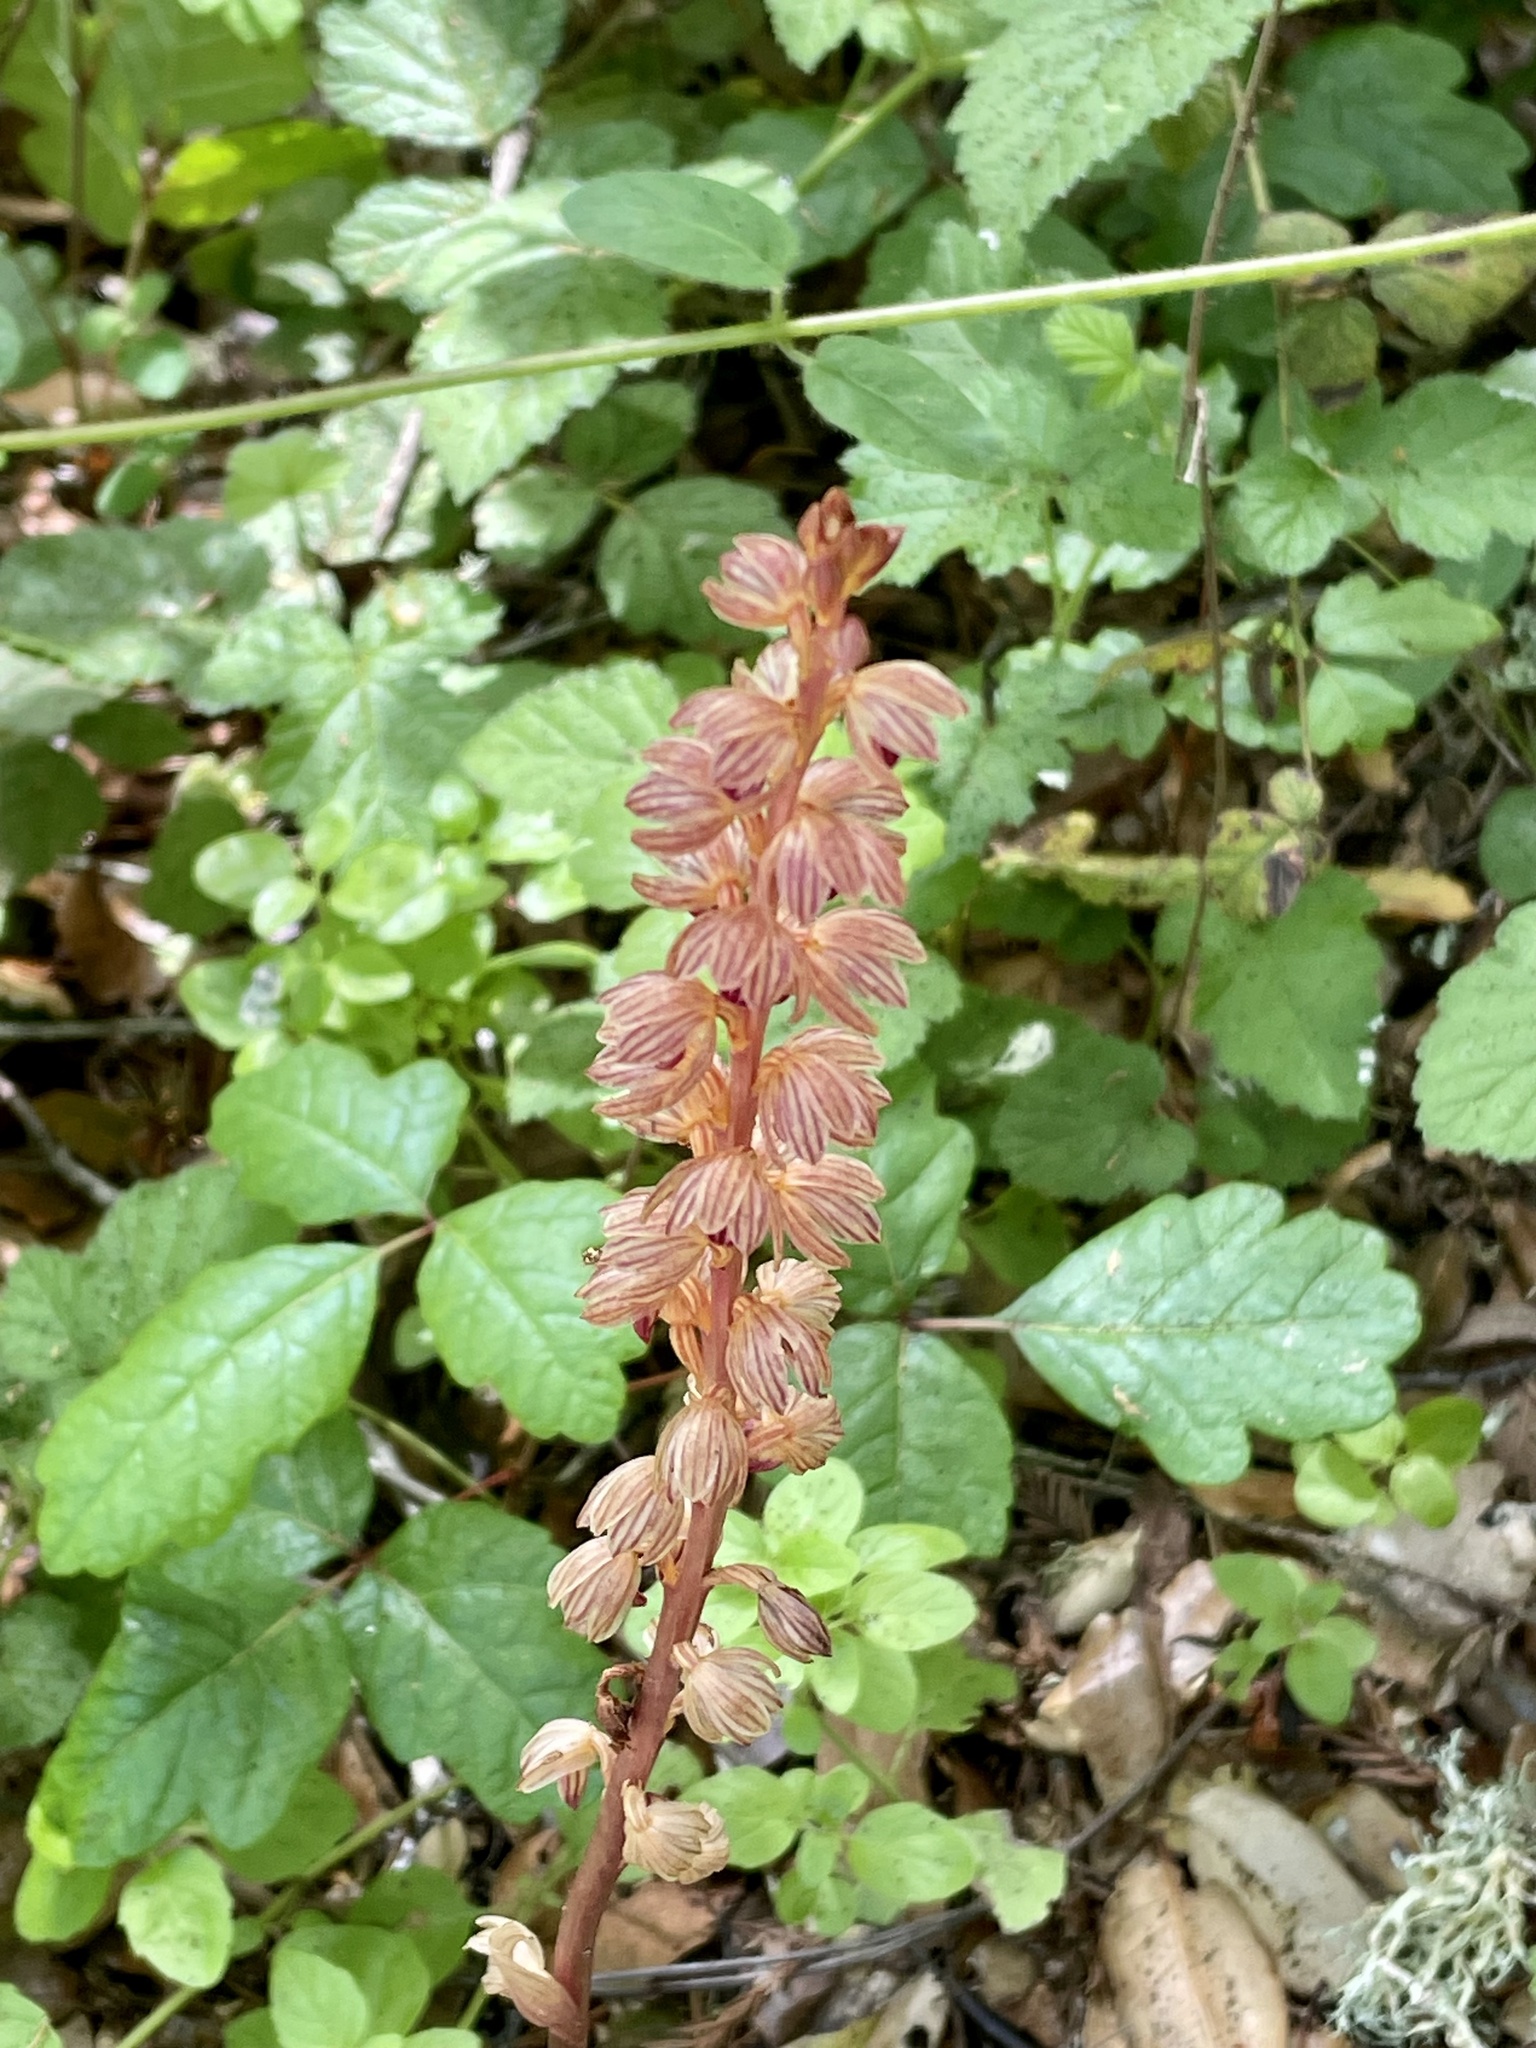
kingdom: Plantae
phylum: Tracheophyta
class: Liliopsida
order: Asparagales
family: Orchidaceae
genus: Corallorhiza
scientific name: Corallorhiza striata
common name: Hooded coralroot
